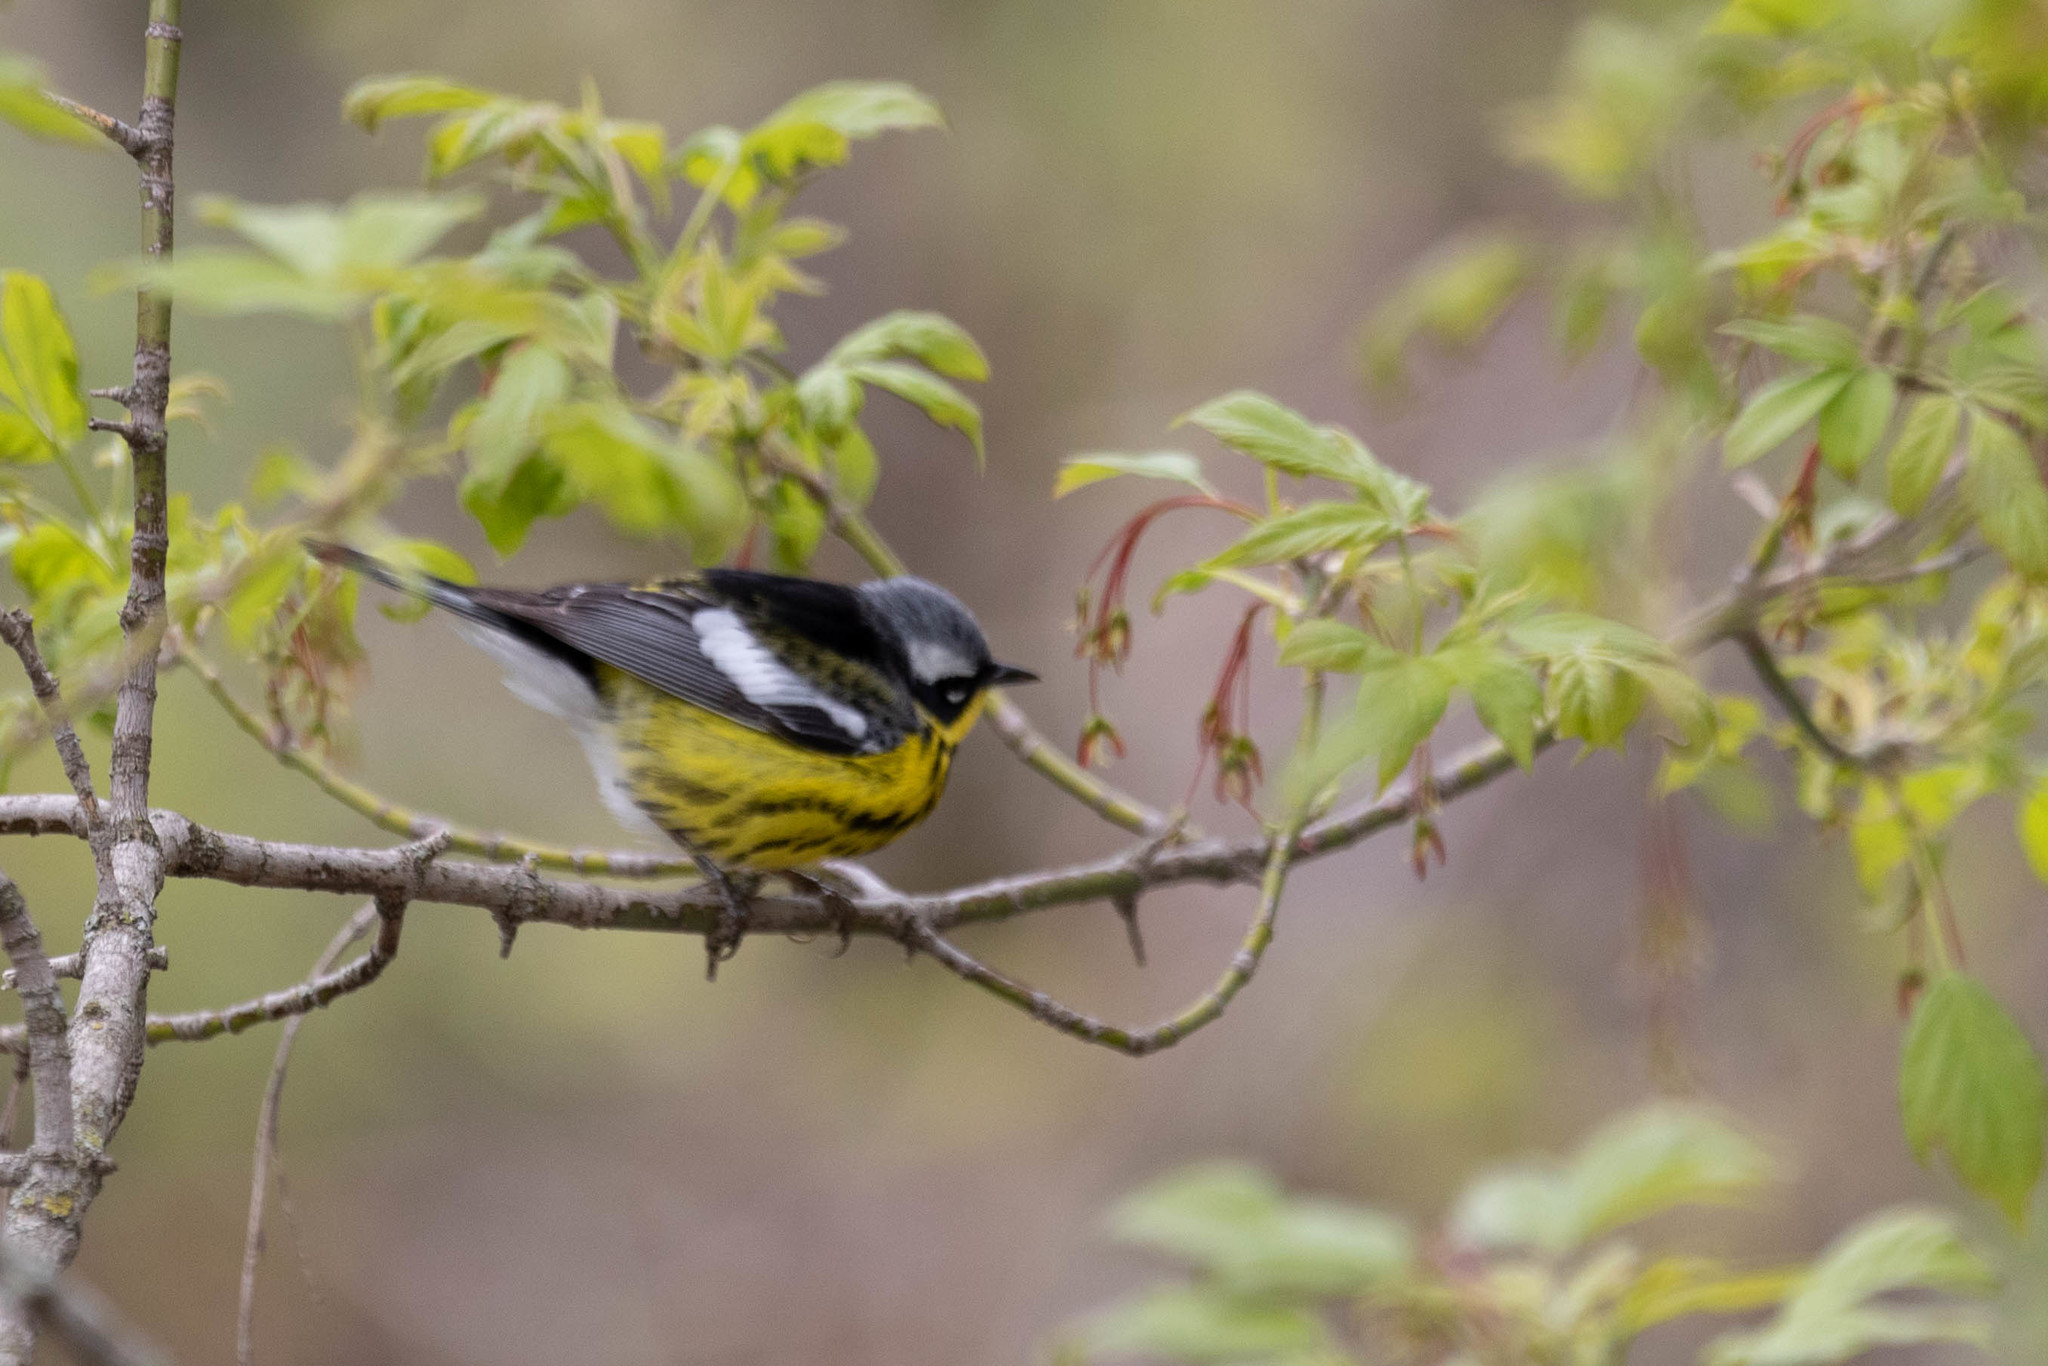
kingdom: Animalia
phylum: Chordata
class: Aves
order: Passeriformes
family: Parulidae
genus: Setophaga
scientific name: Setophaga magnolia
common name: Magnolia warbler
